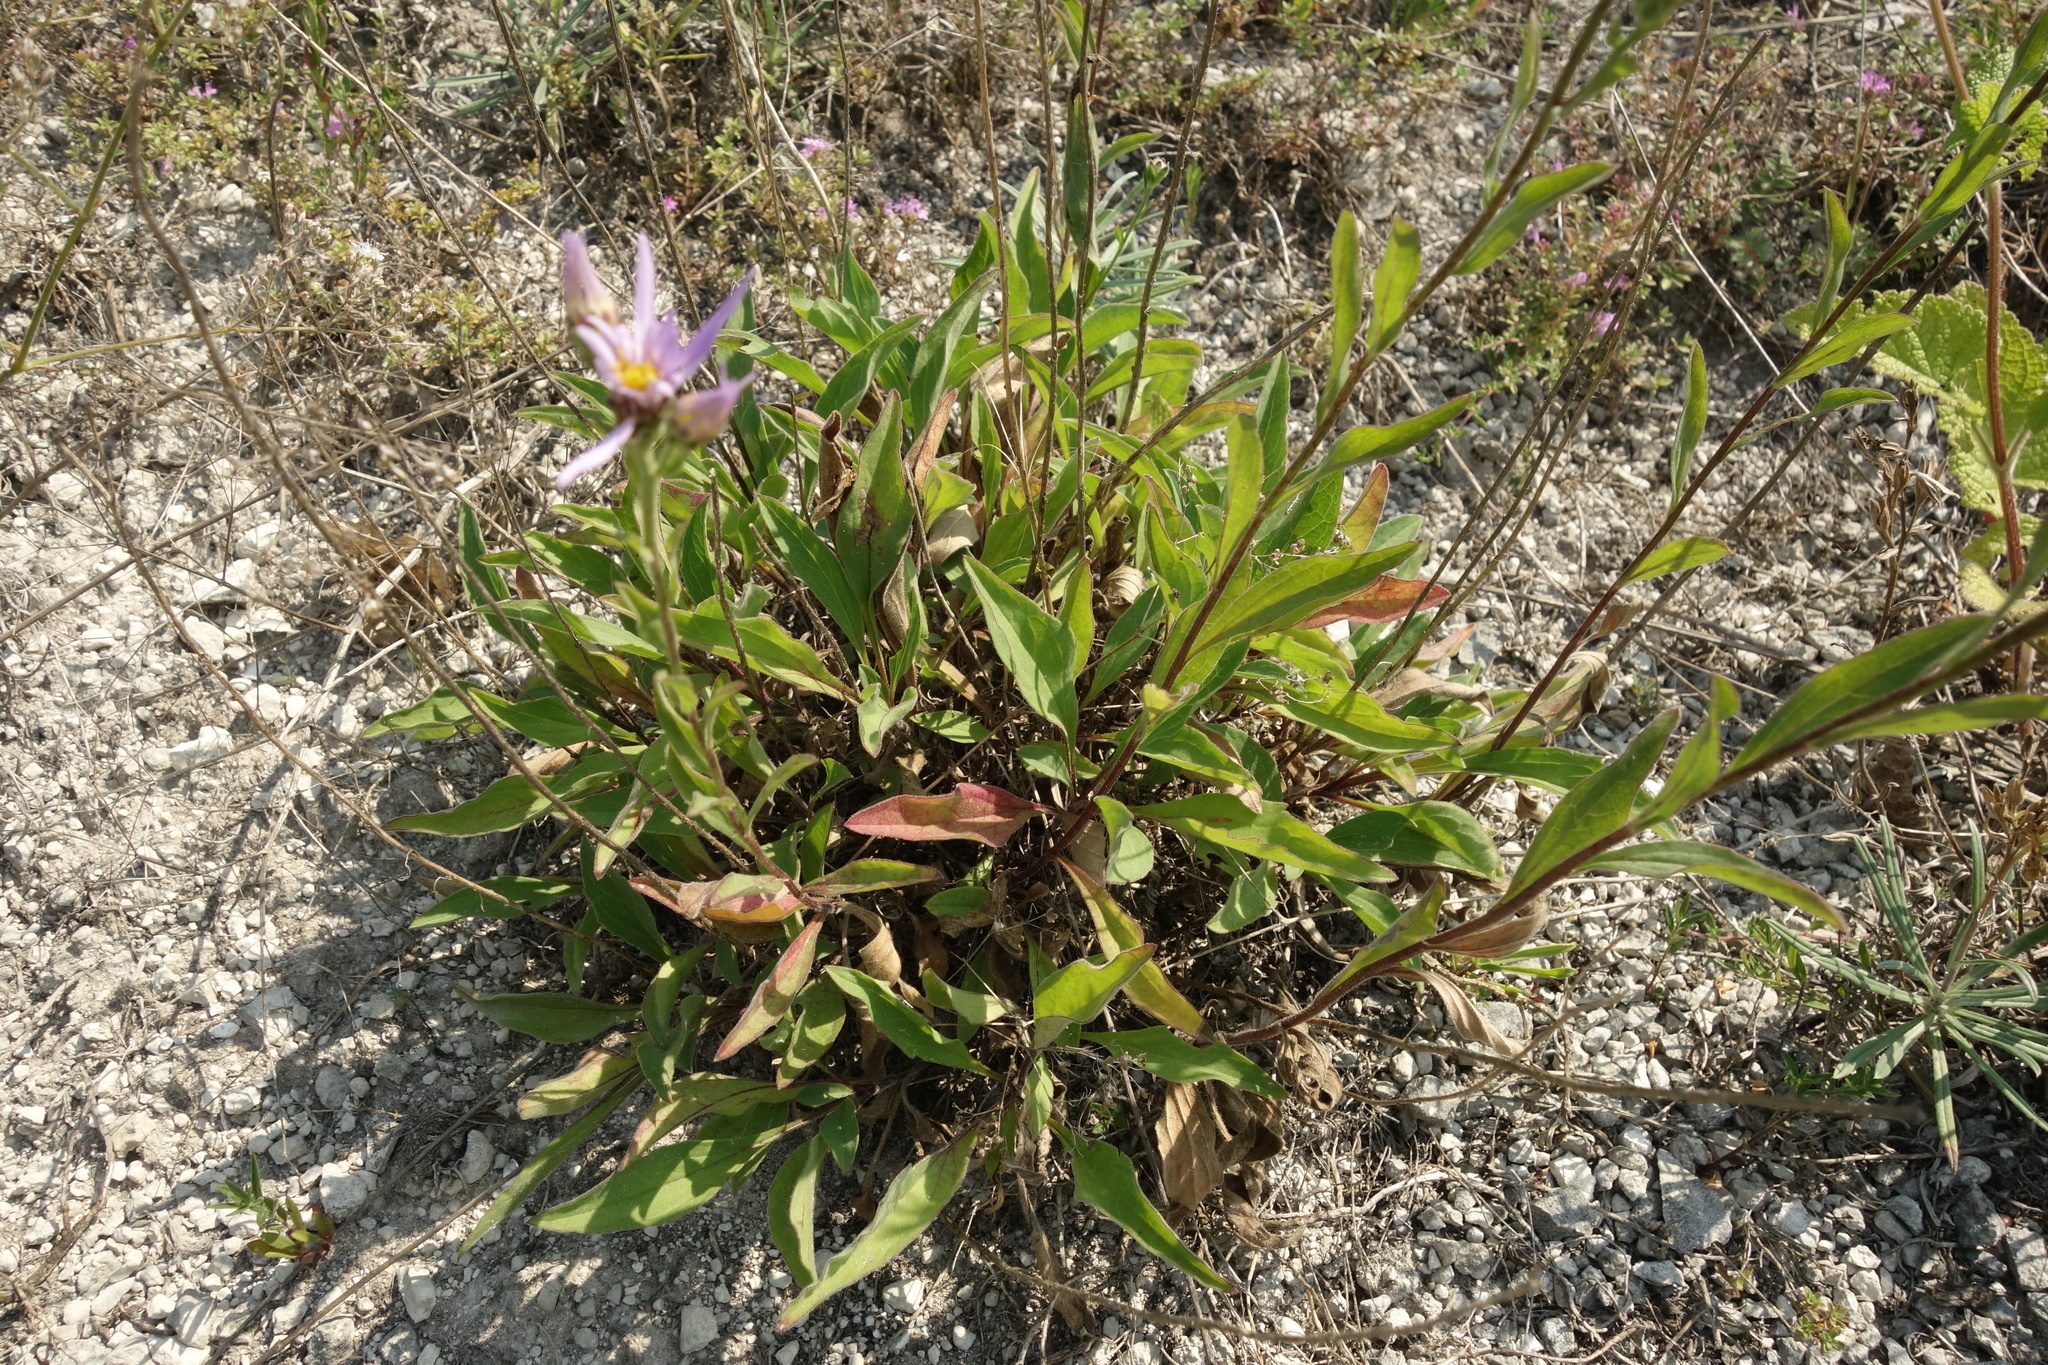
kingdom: Plantae
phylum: Tracheophyta
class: Magnoliopsida
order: Asterales
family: Asteraceae
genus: Aster
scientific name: Aster amellus
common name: European michaelmas daisy
